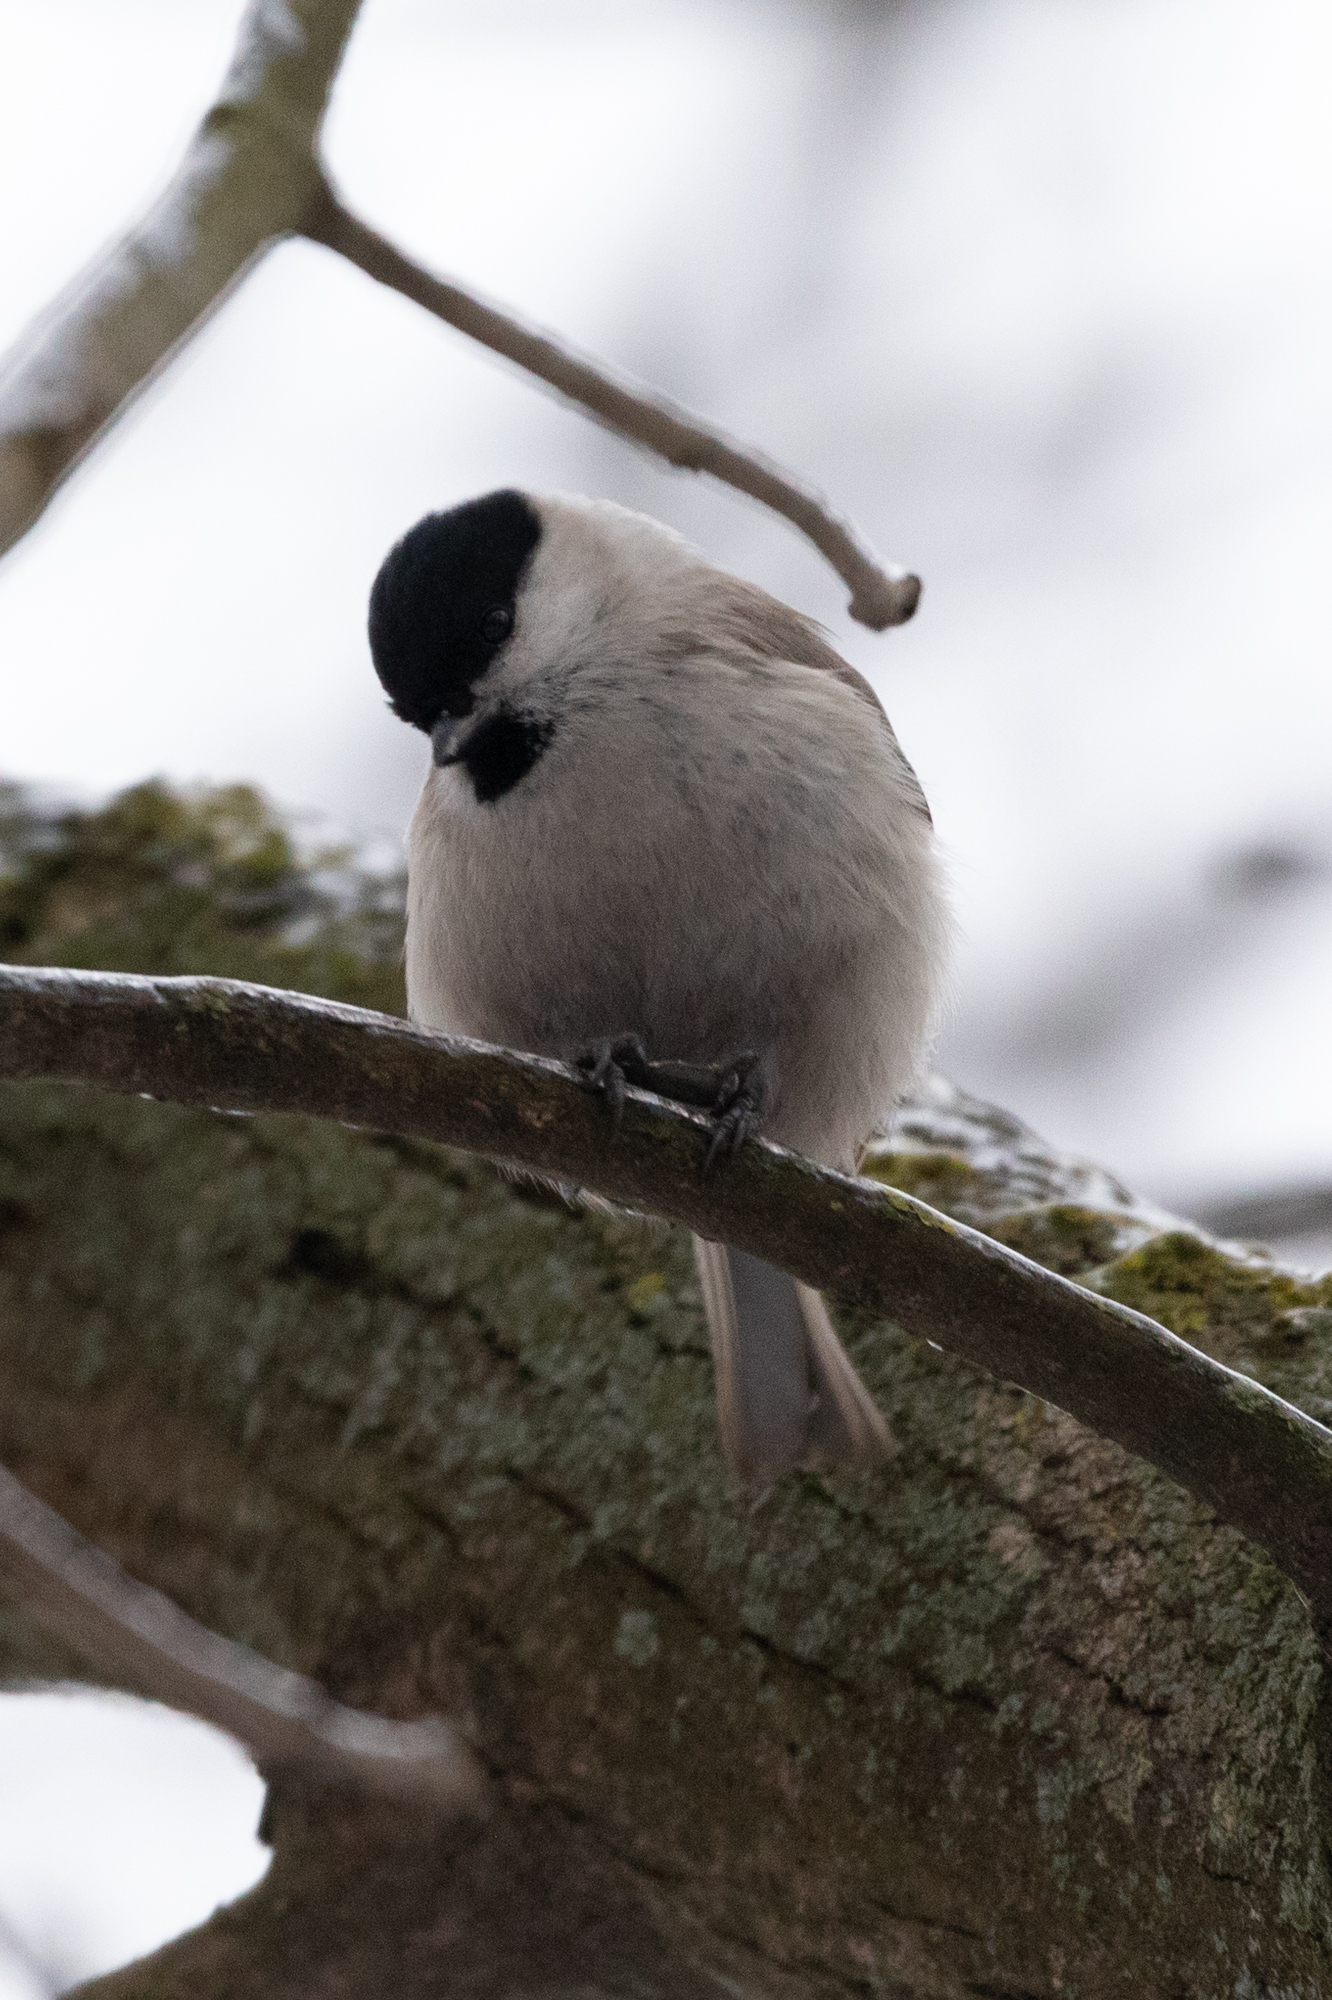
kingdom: Animalia
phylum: Chordata
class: Aves
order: Passeriformes
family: Paridae
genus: Poecile
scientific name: Poecile palustris
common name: Marsh tit
